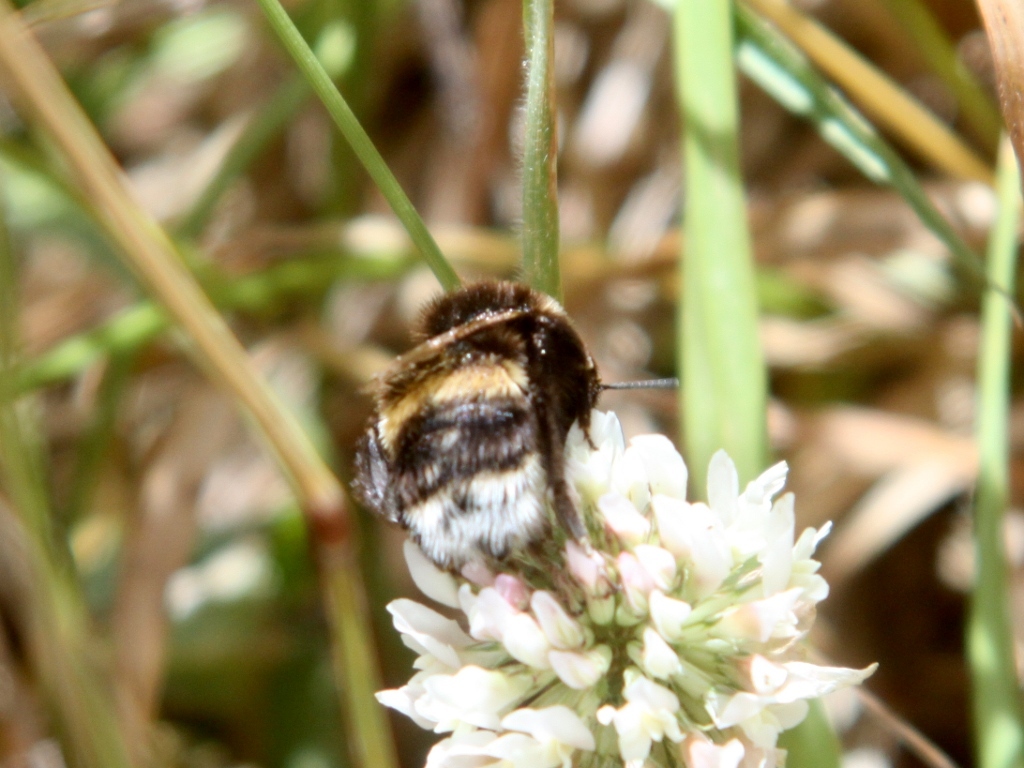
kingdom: Animalia
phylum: Arthropoda
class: Insecta
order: Hymenoptera
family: Apidae
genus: Bombus
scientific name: Bombus terrestris
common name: Buff-tailed bumblebee
